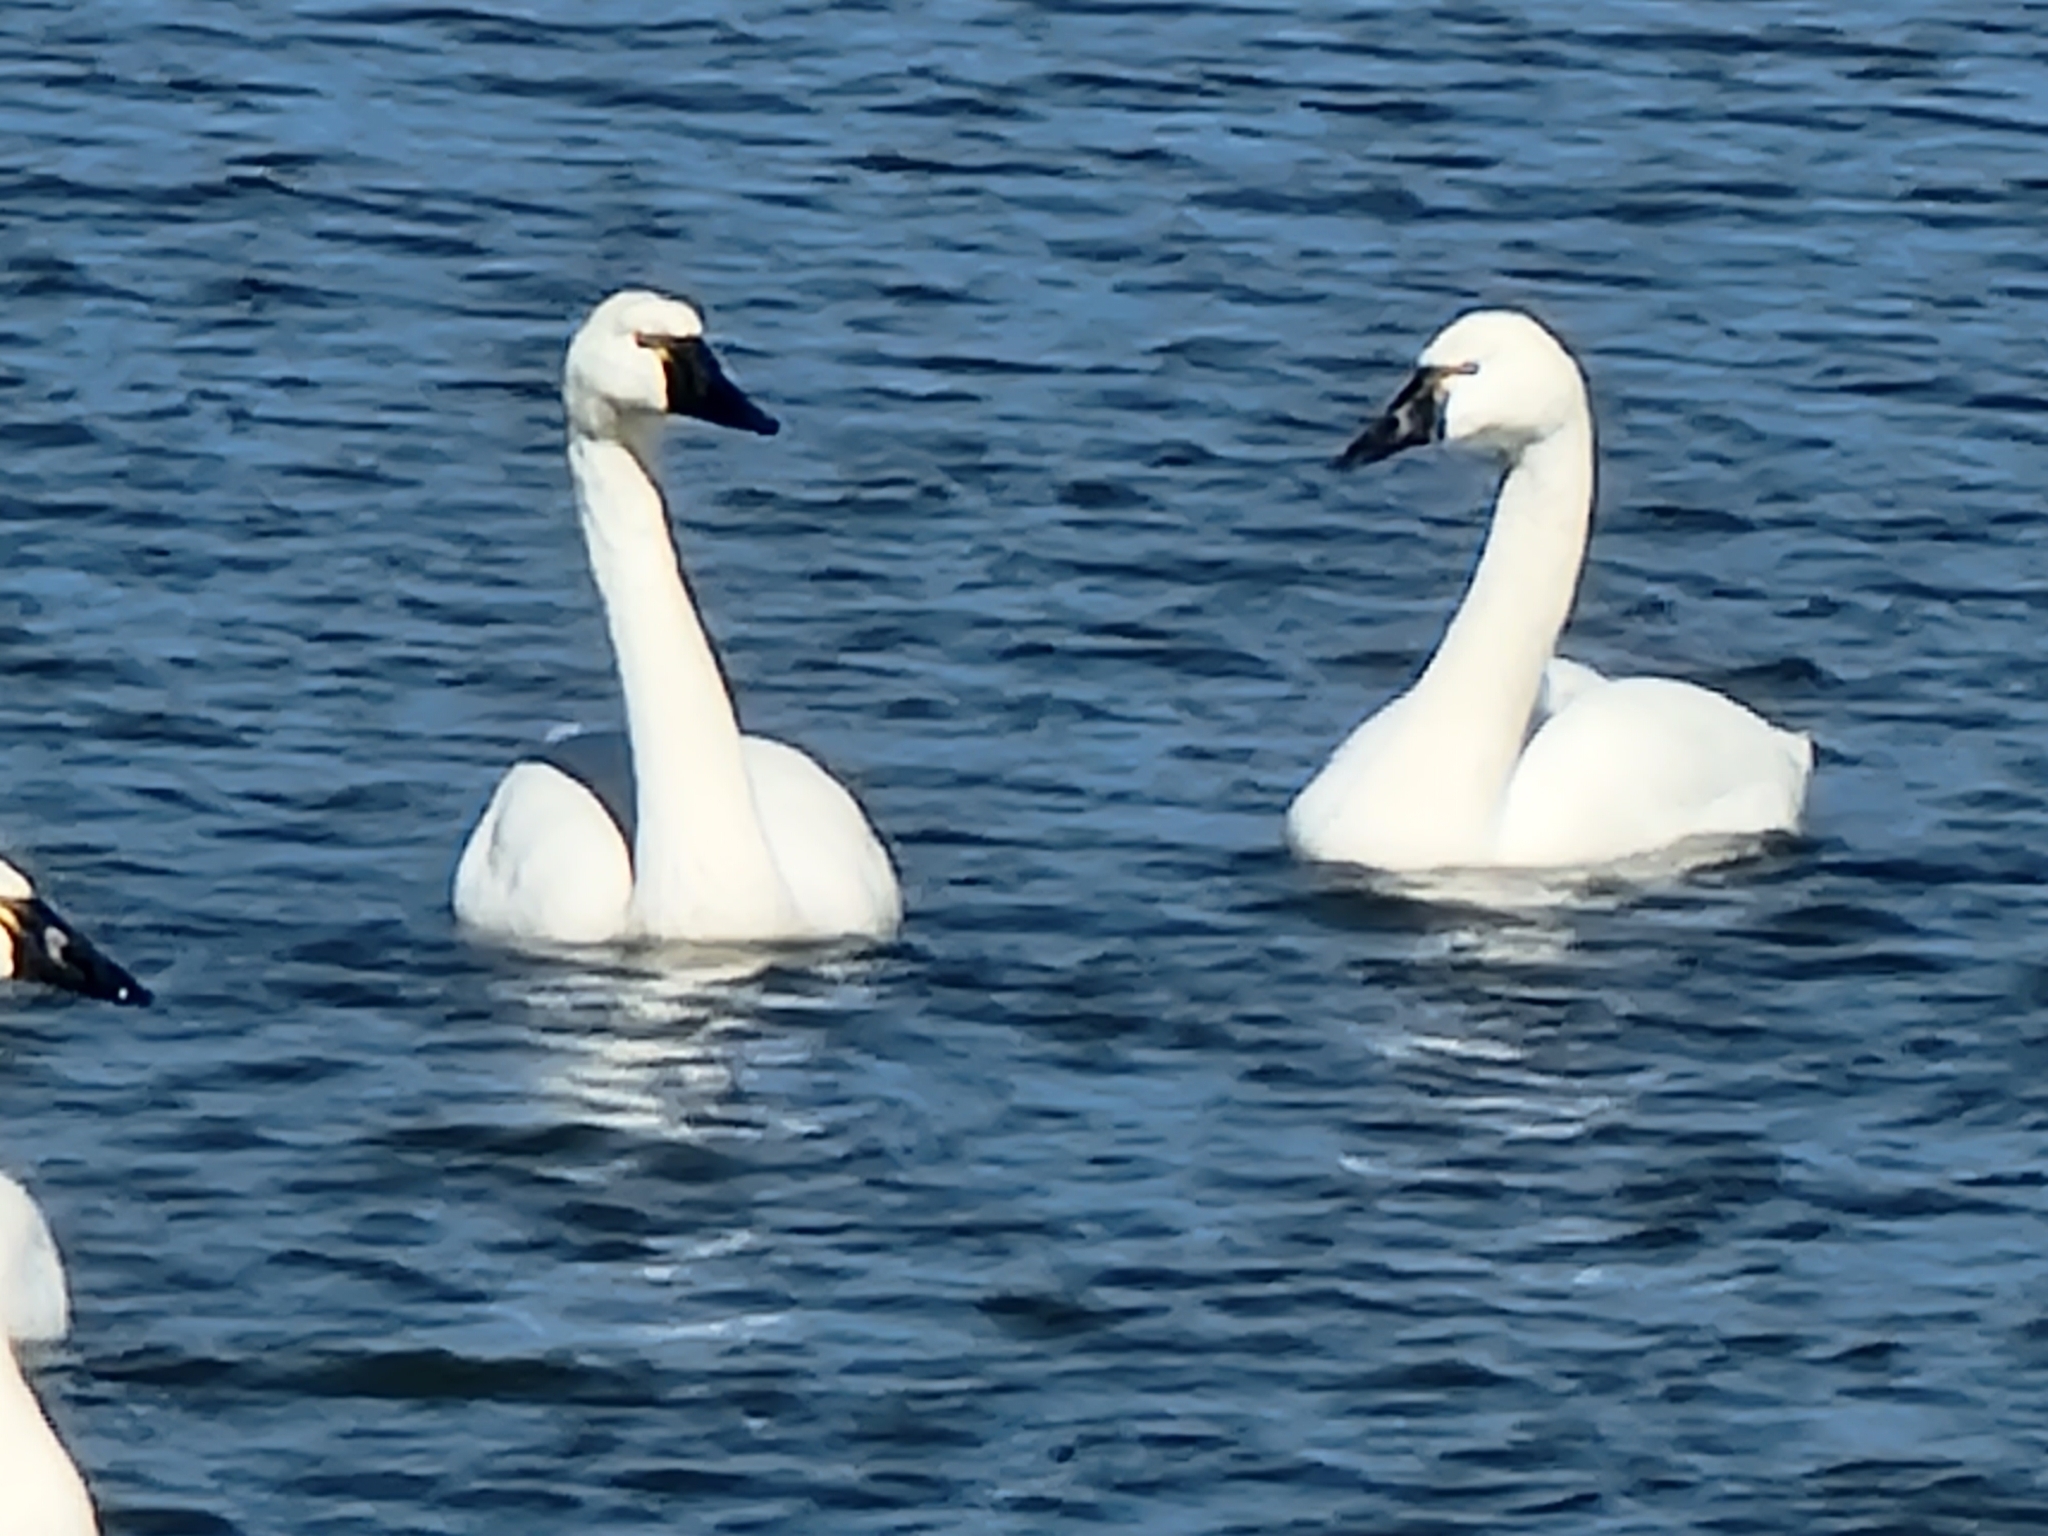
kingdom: Animalia
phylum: Chordata
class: Aves
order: Anseriformes
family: Anatidae
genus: Cygnus
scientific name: Cygnus columbianus
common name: Tundra swan
